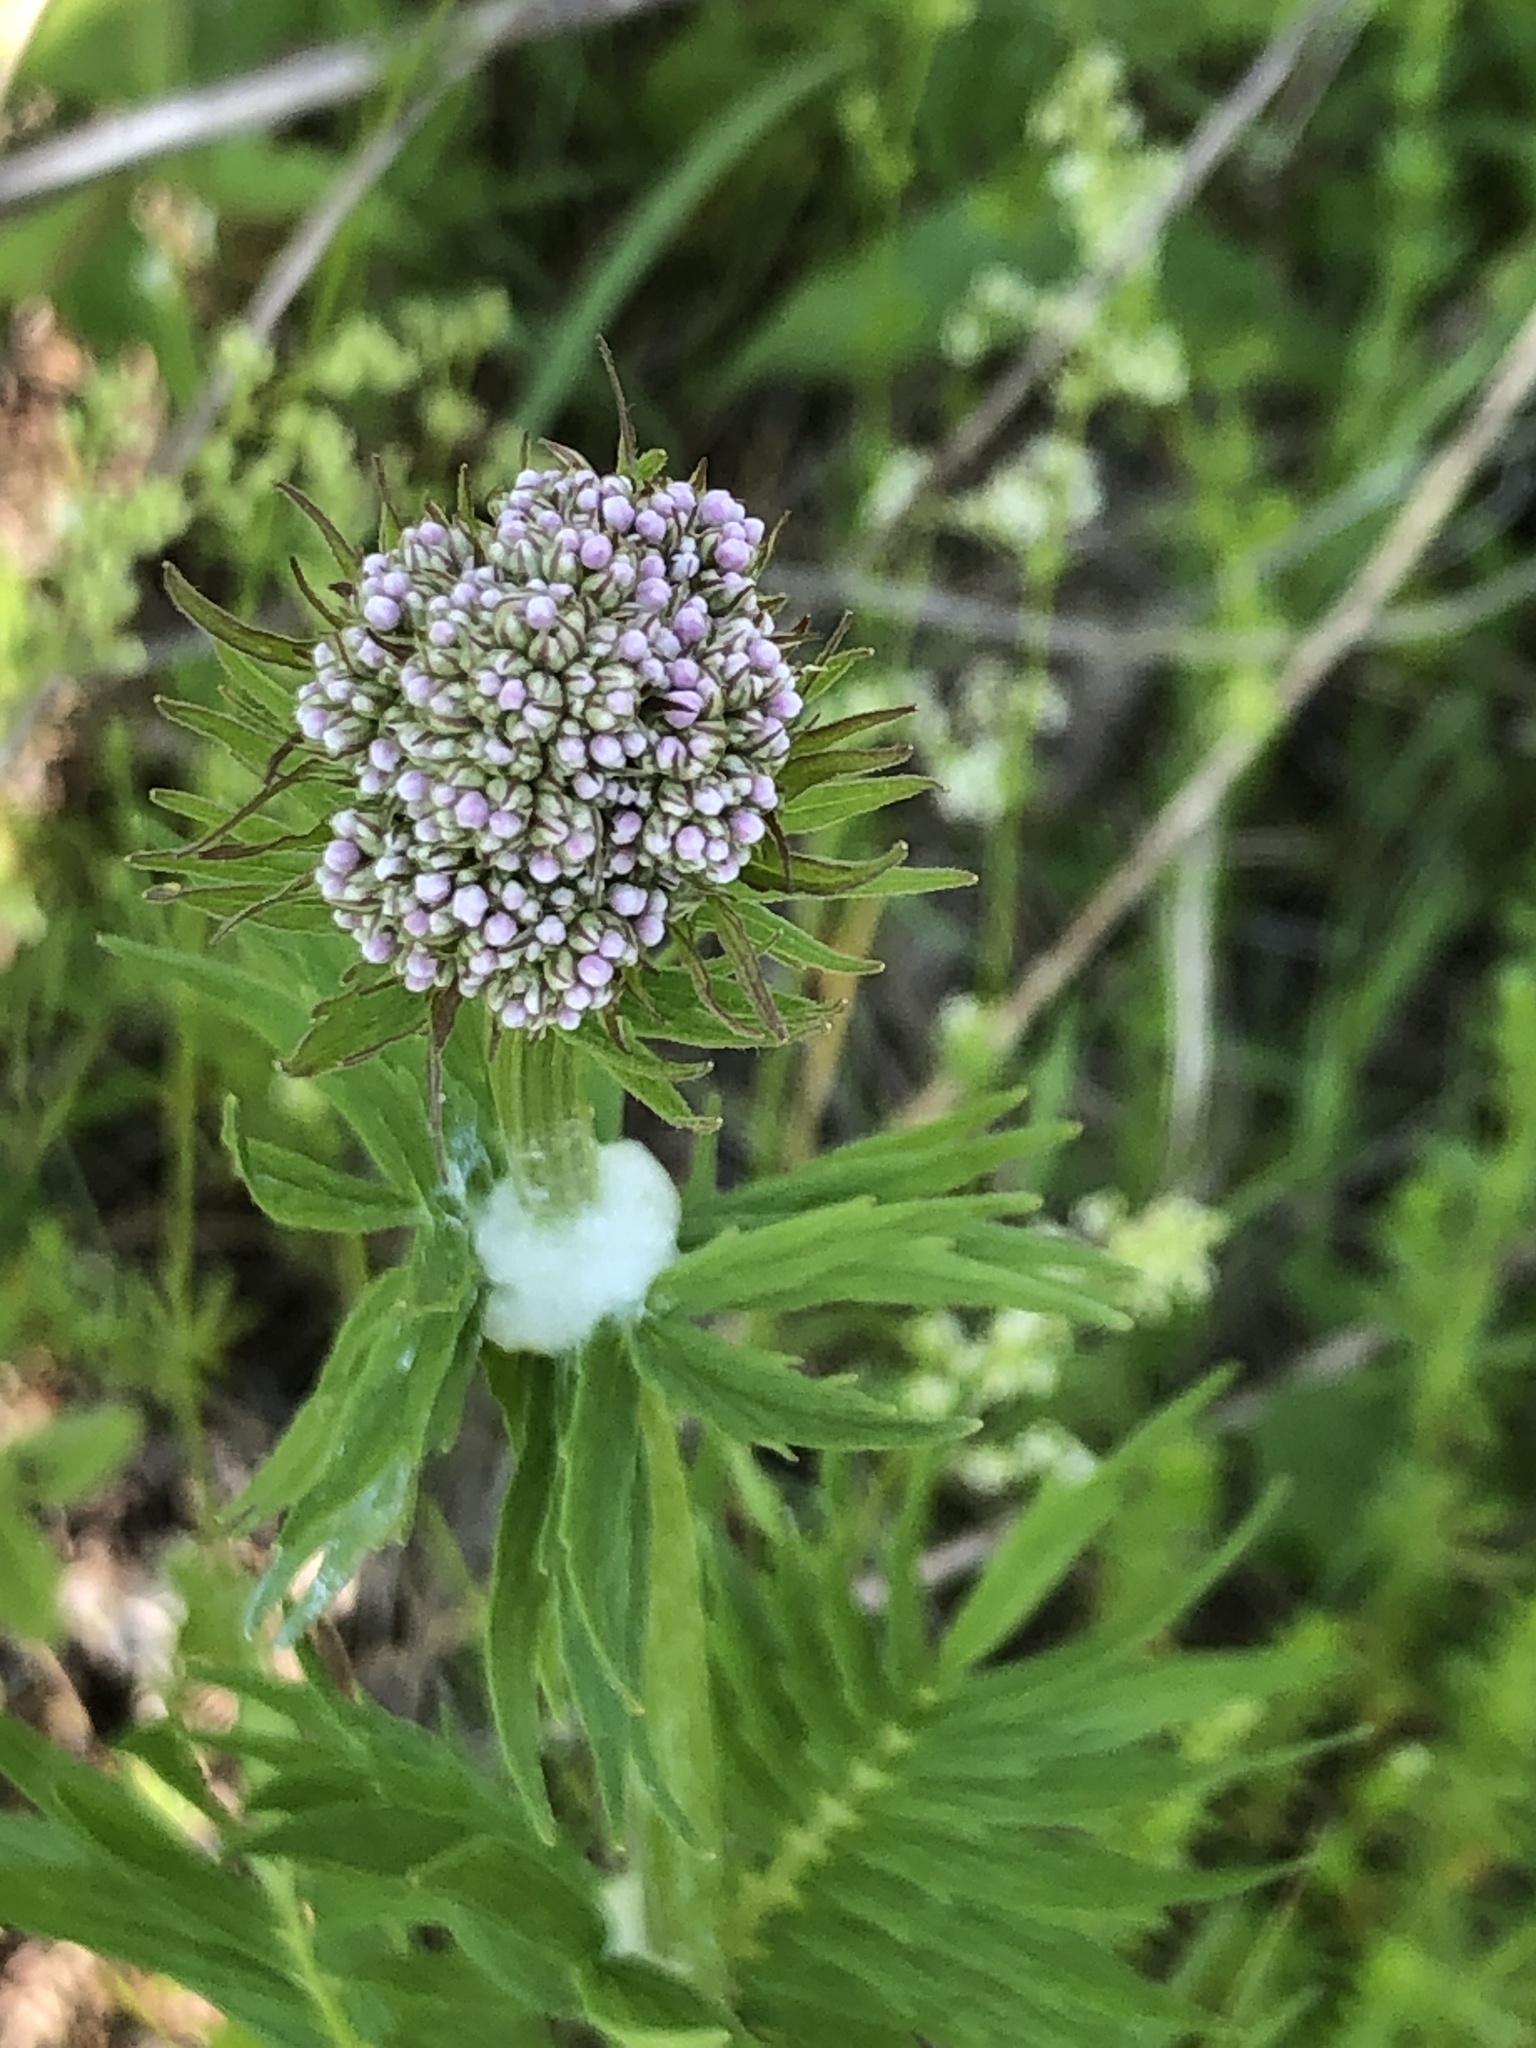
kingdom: Plantae
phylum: Tracheophyta
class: Magnoliopsida
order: Dipsacales
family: Caprifoliaceae
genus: Valeriana
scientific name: Valeriana officinalis
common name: Common valerian
